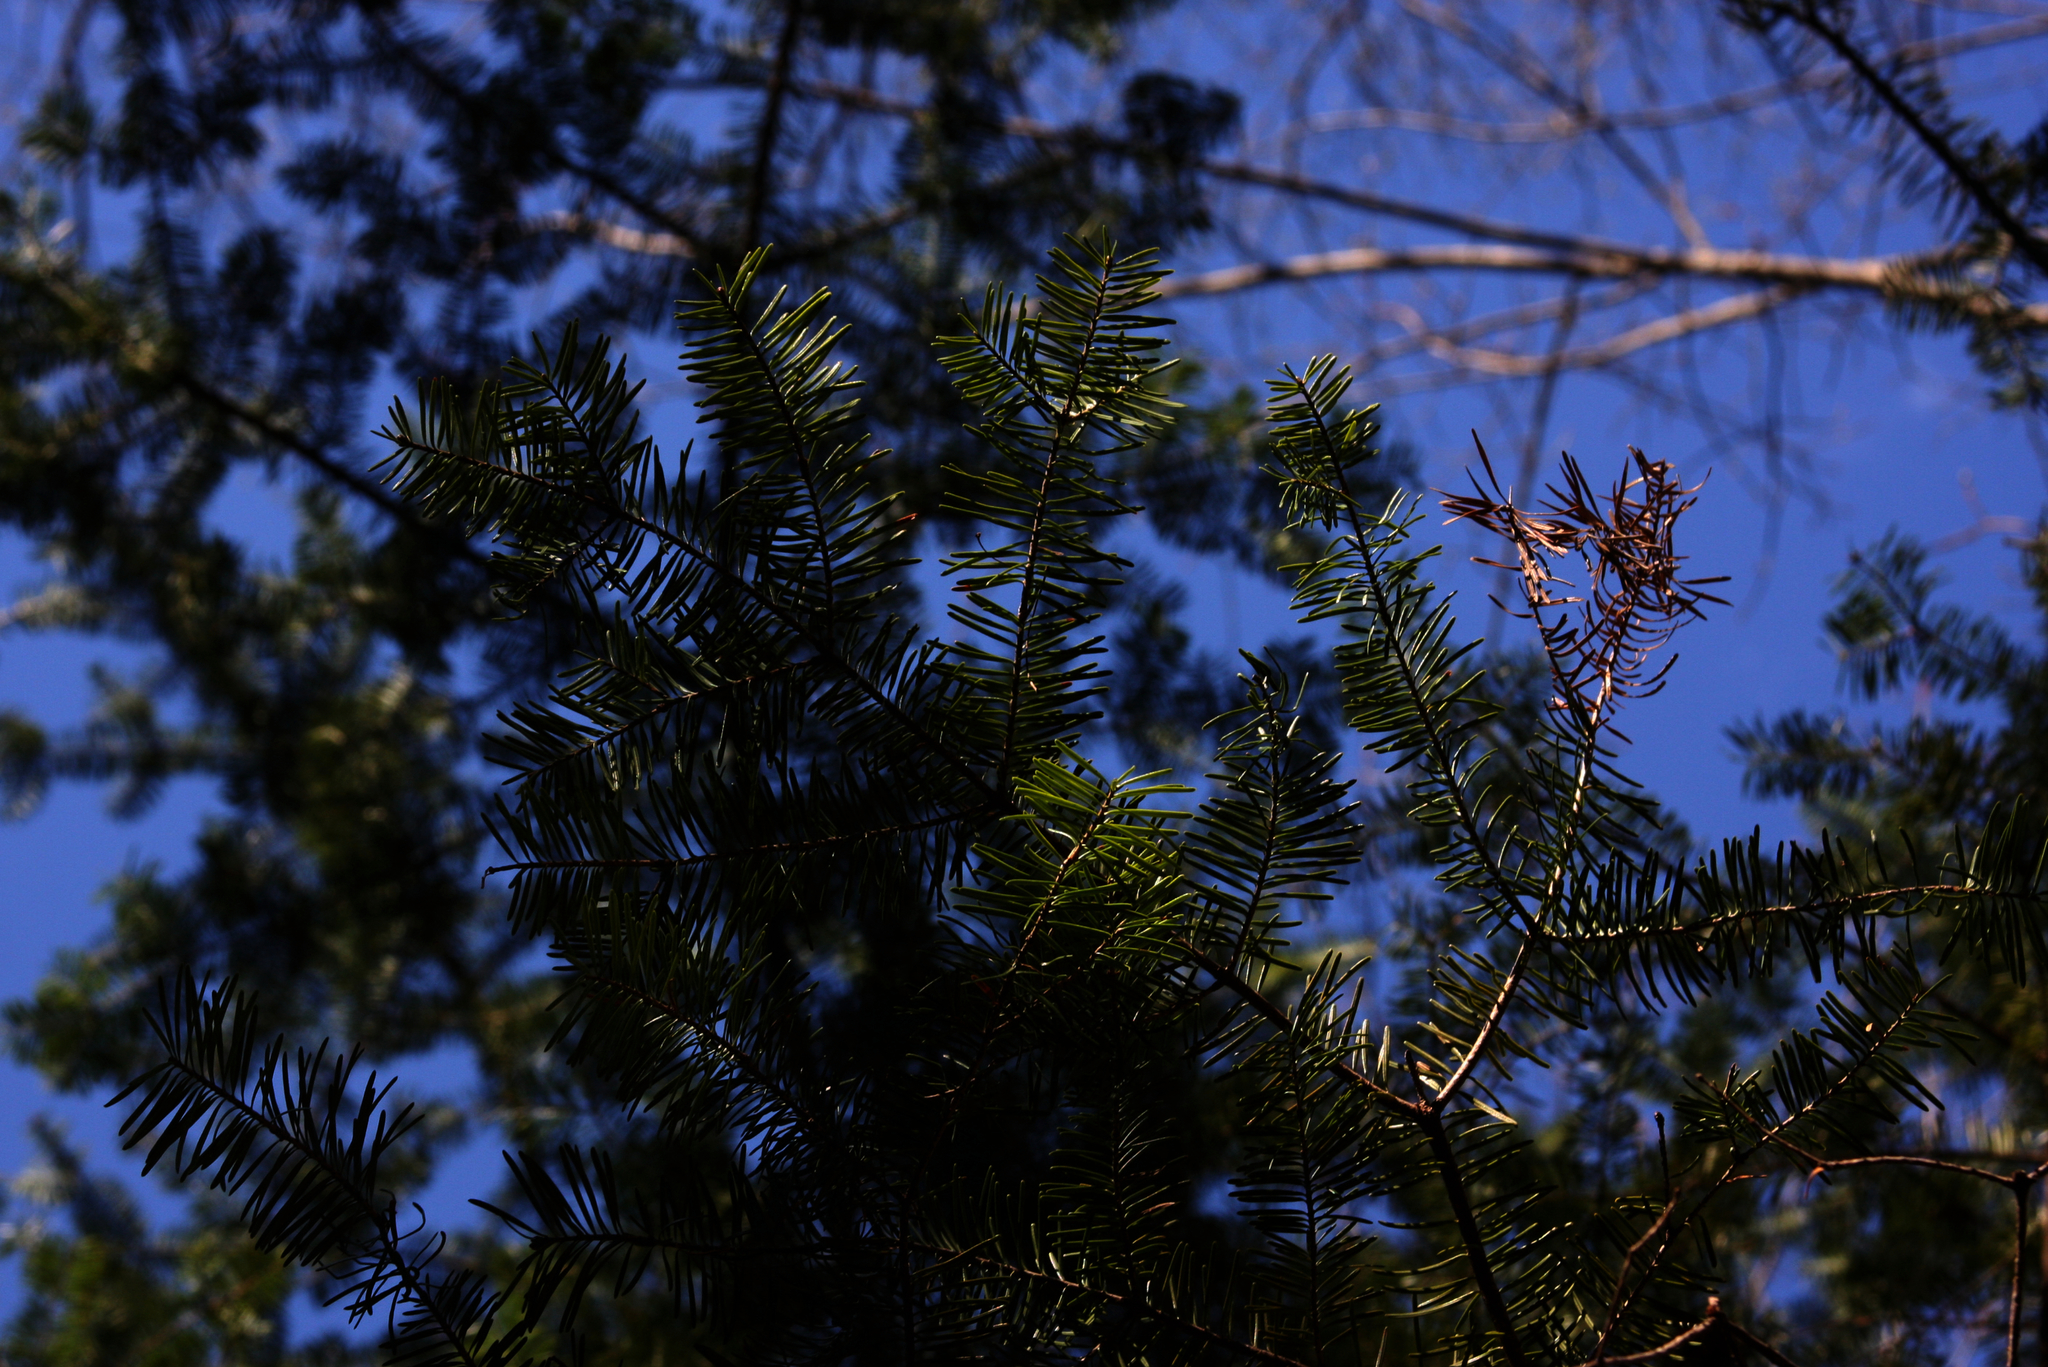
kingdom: Plantae
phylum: Tracheophyta
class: Pinopsida
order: Pinales
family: Pinaceae
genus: Abies
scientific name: Abies balsamea
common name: Balsam fir
